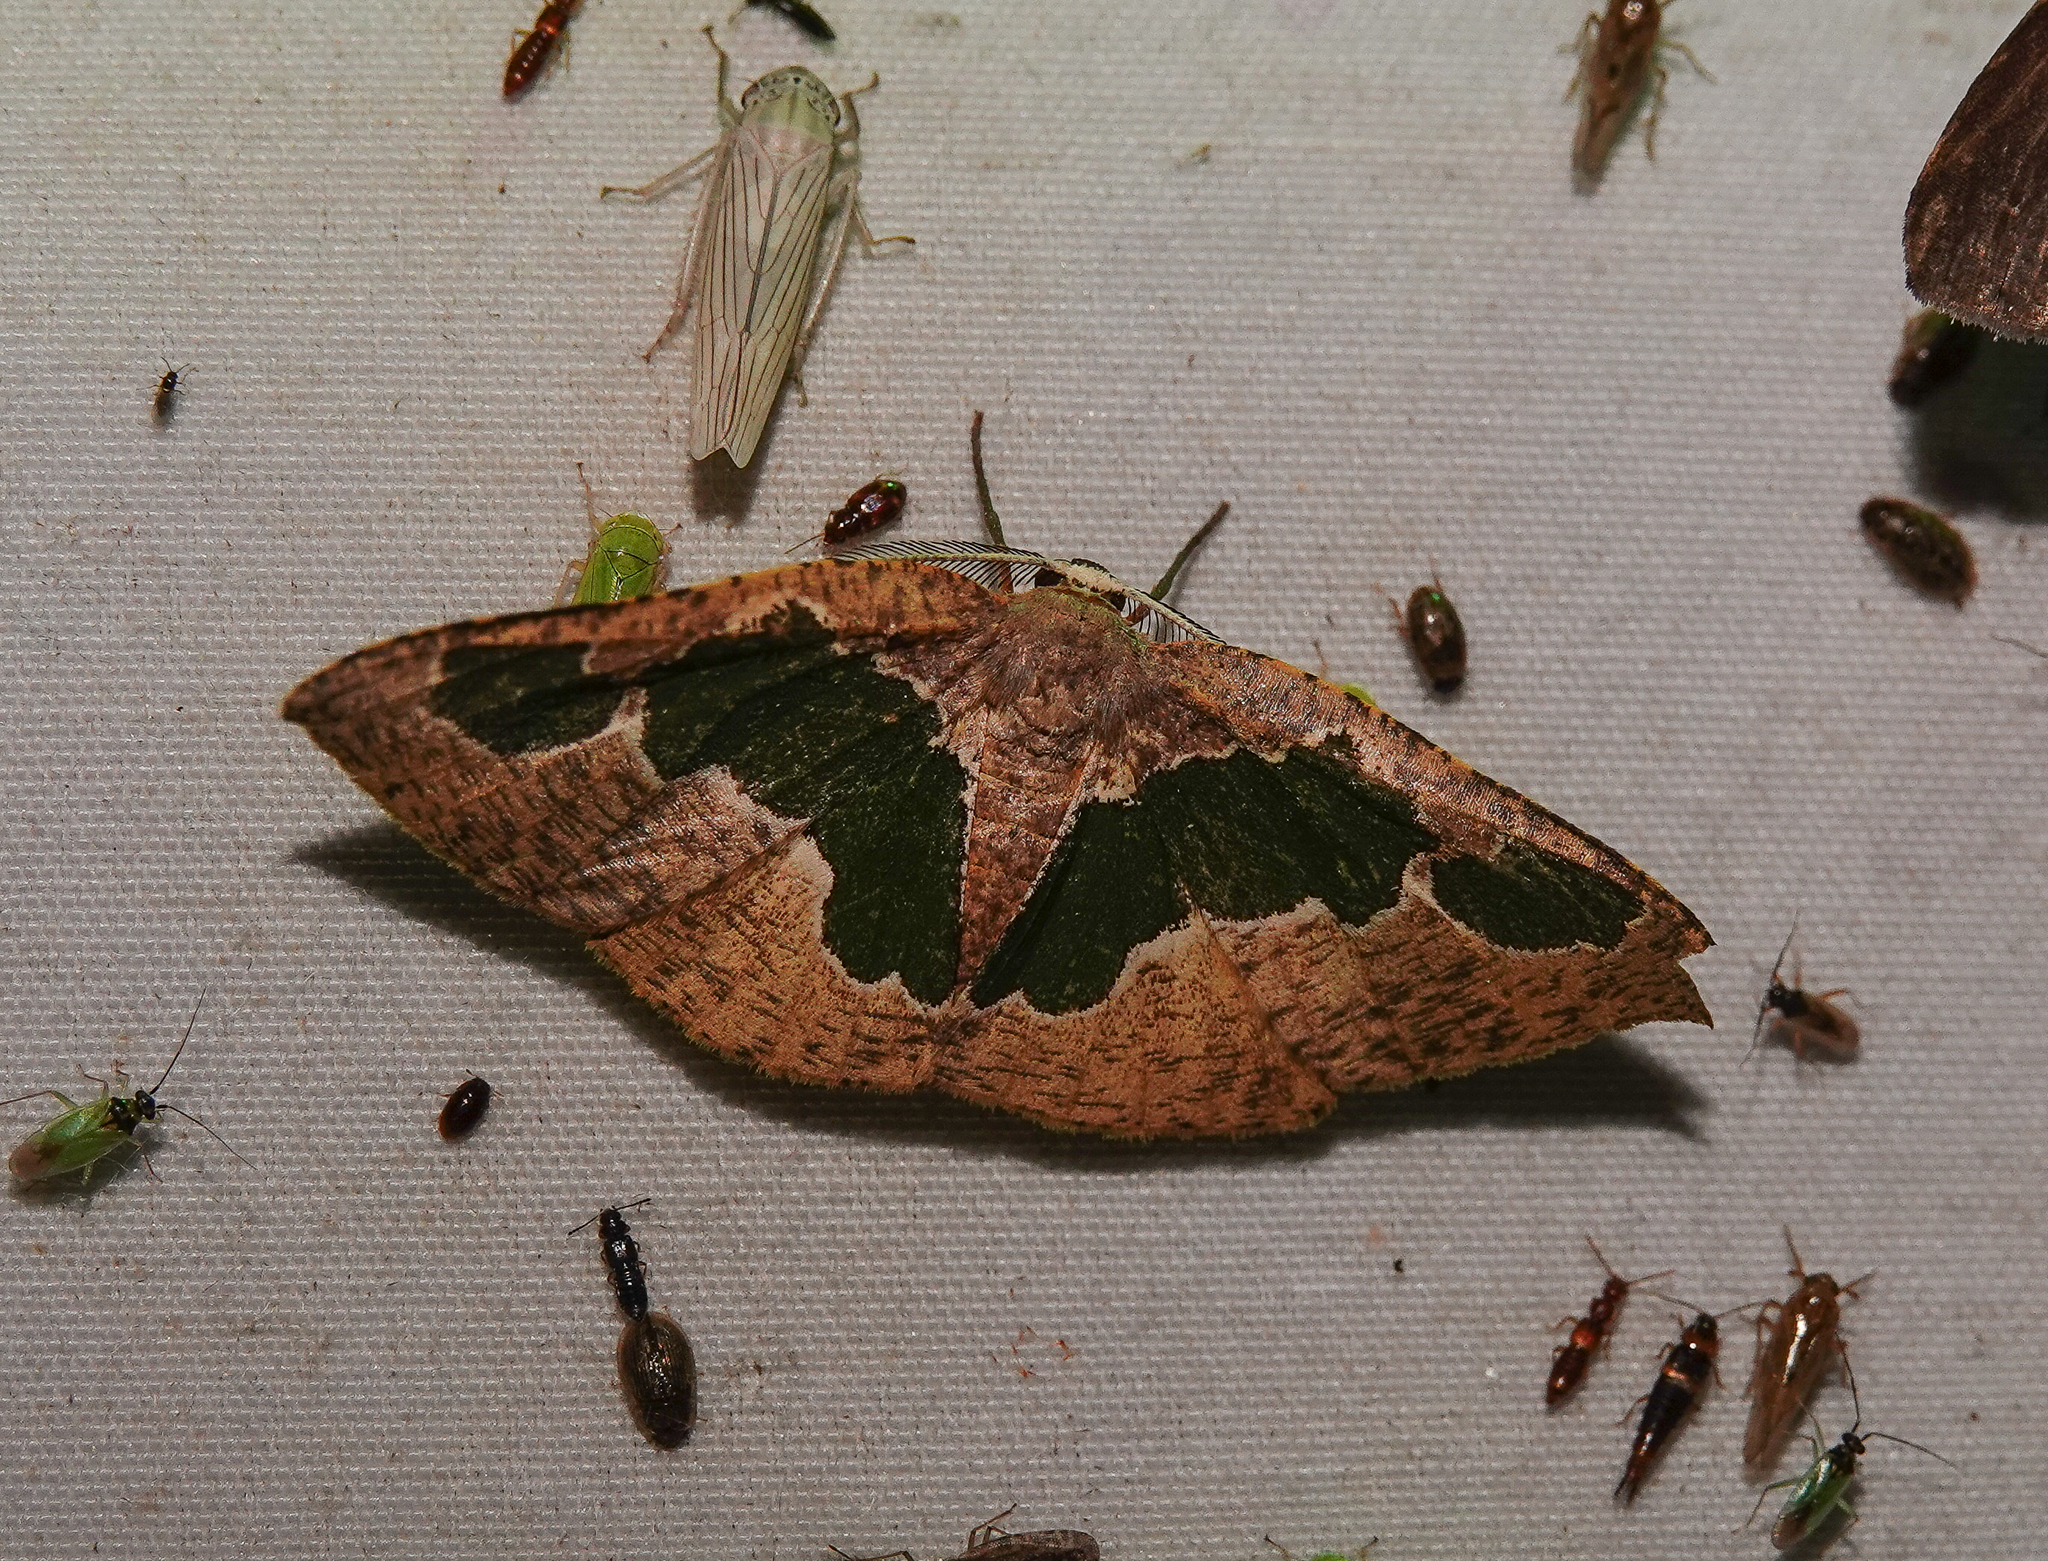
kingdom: Animalia
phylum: Arthropoda
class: Insecta
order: Lepidoptera
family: Geometridae
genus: Celenna
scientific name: Celenna festivaria
